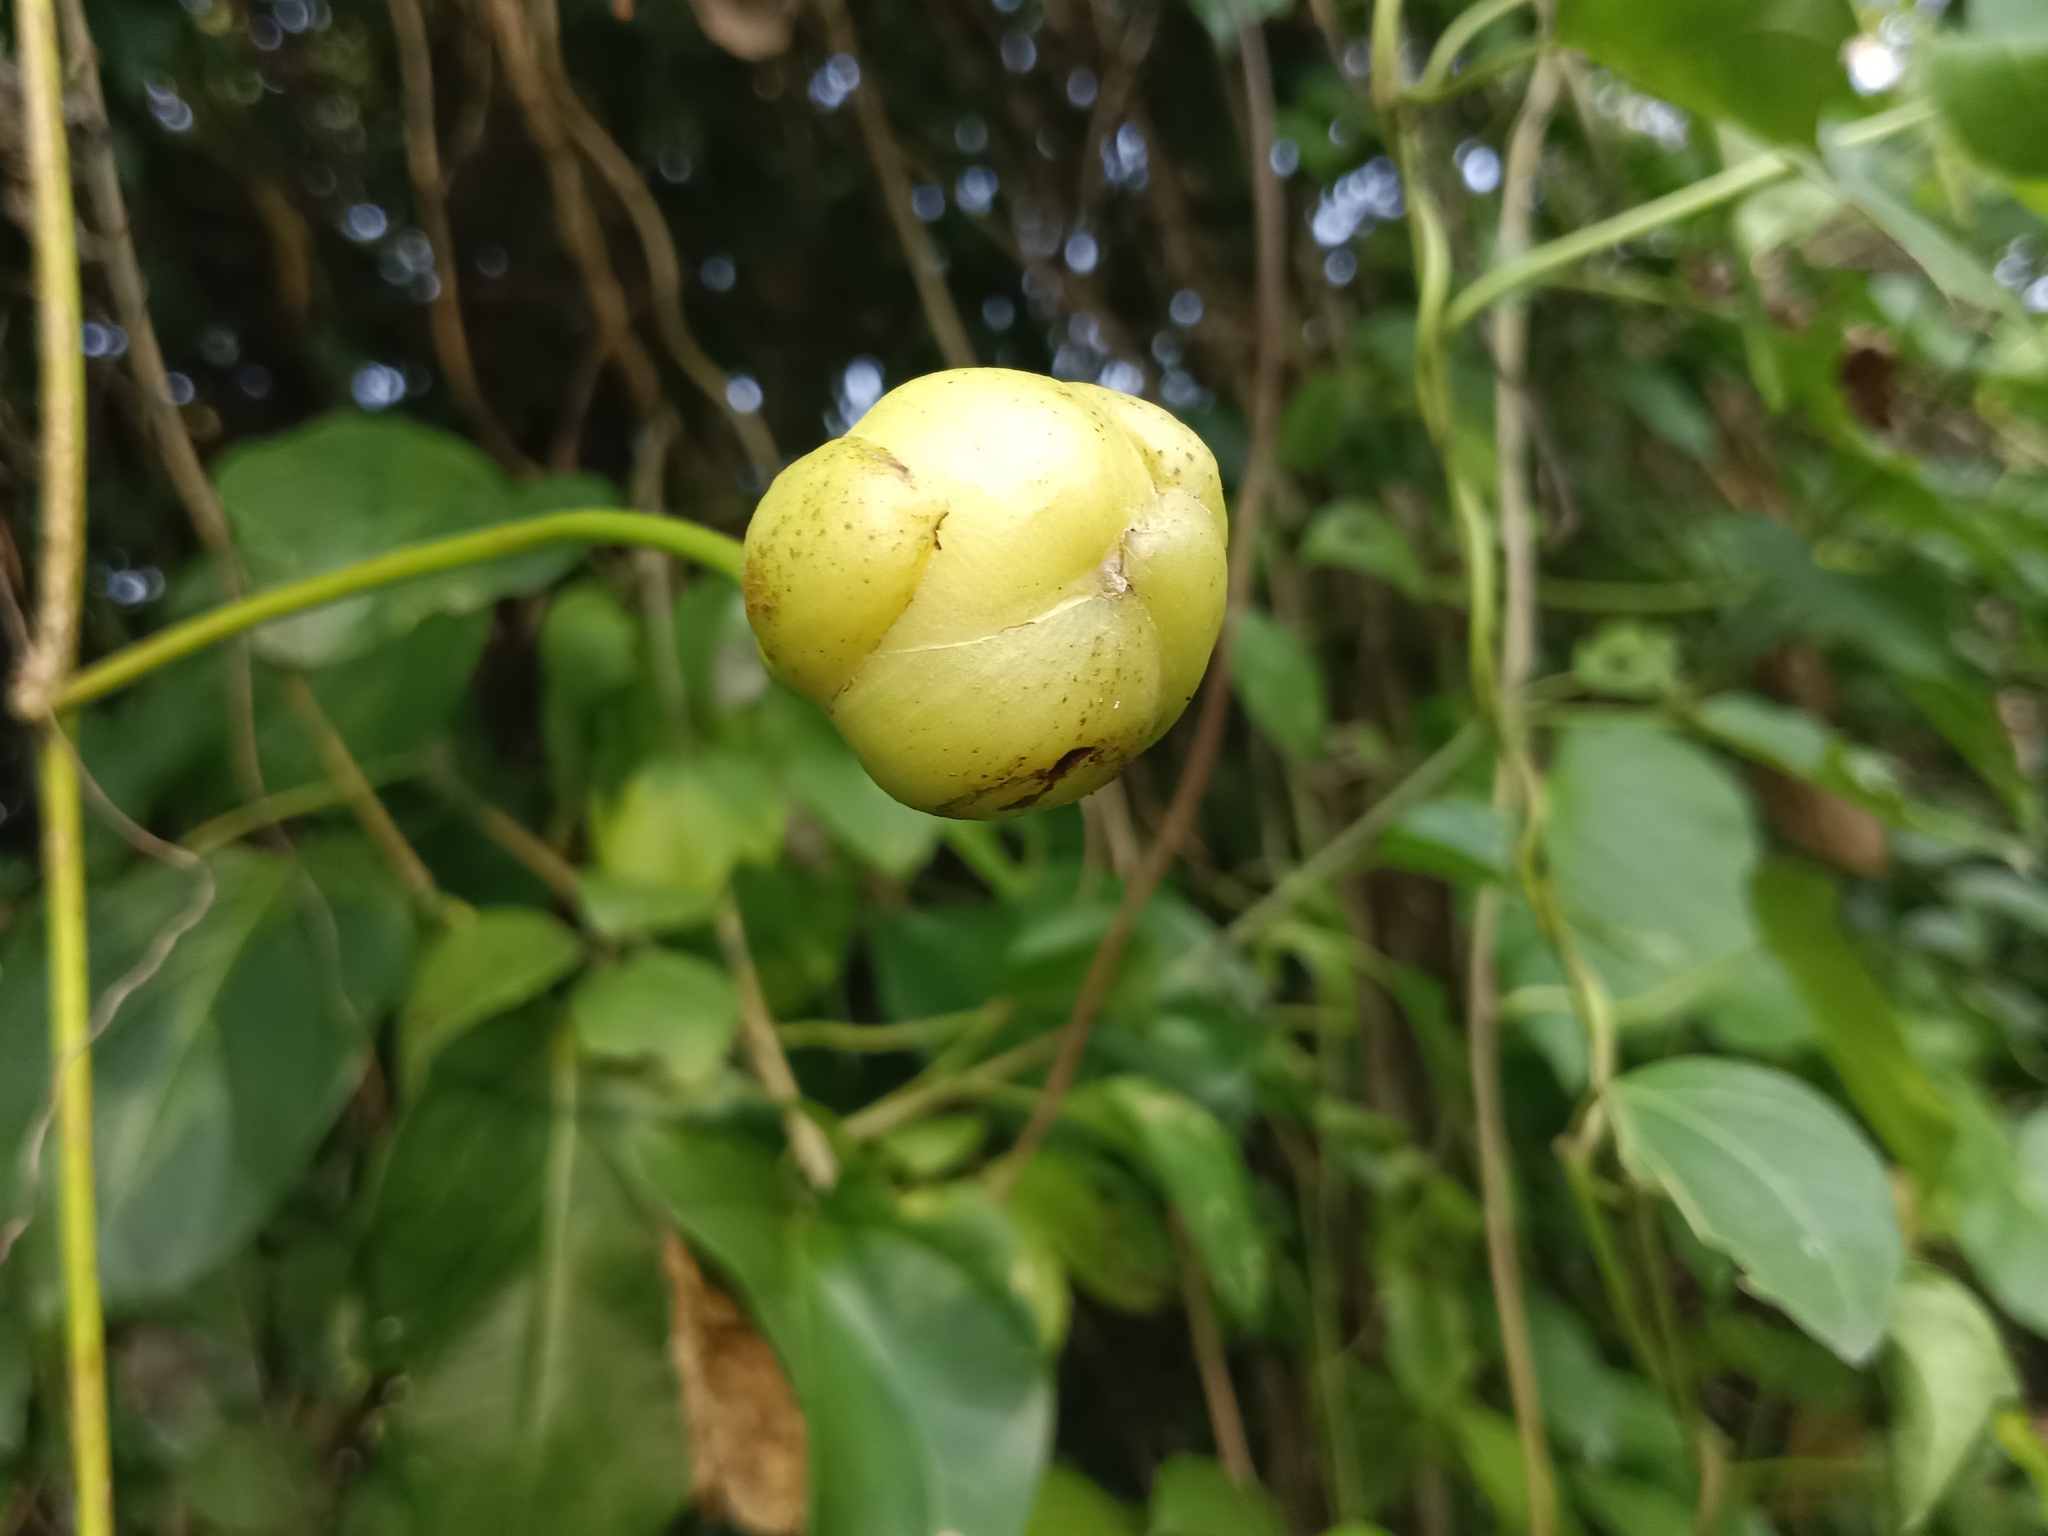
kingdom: Plantae
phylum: Tracheophyta
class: Magnoliopsida
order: Solanales
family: Convolvulaceae
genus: Ipomoea
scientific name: Ipomoea violacea
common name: Beach moonflower
